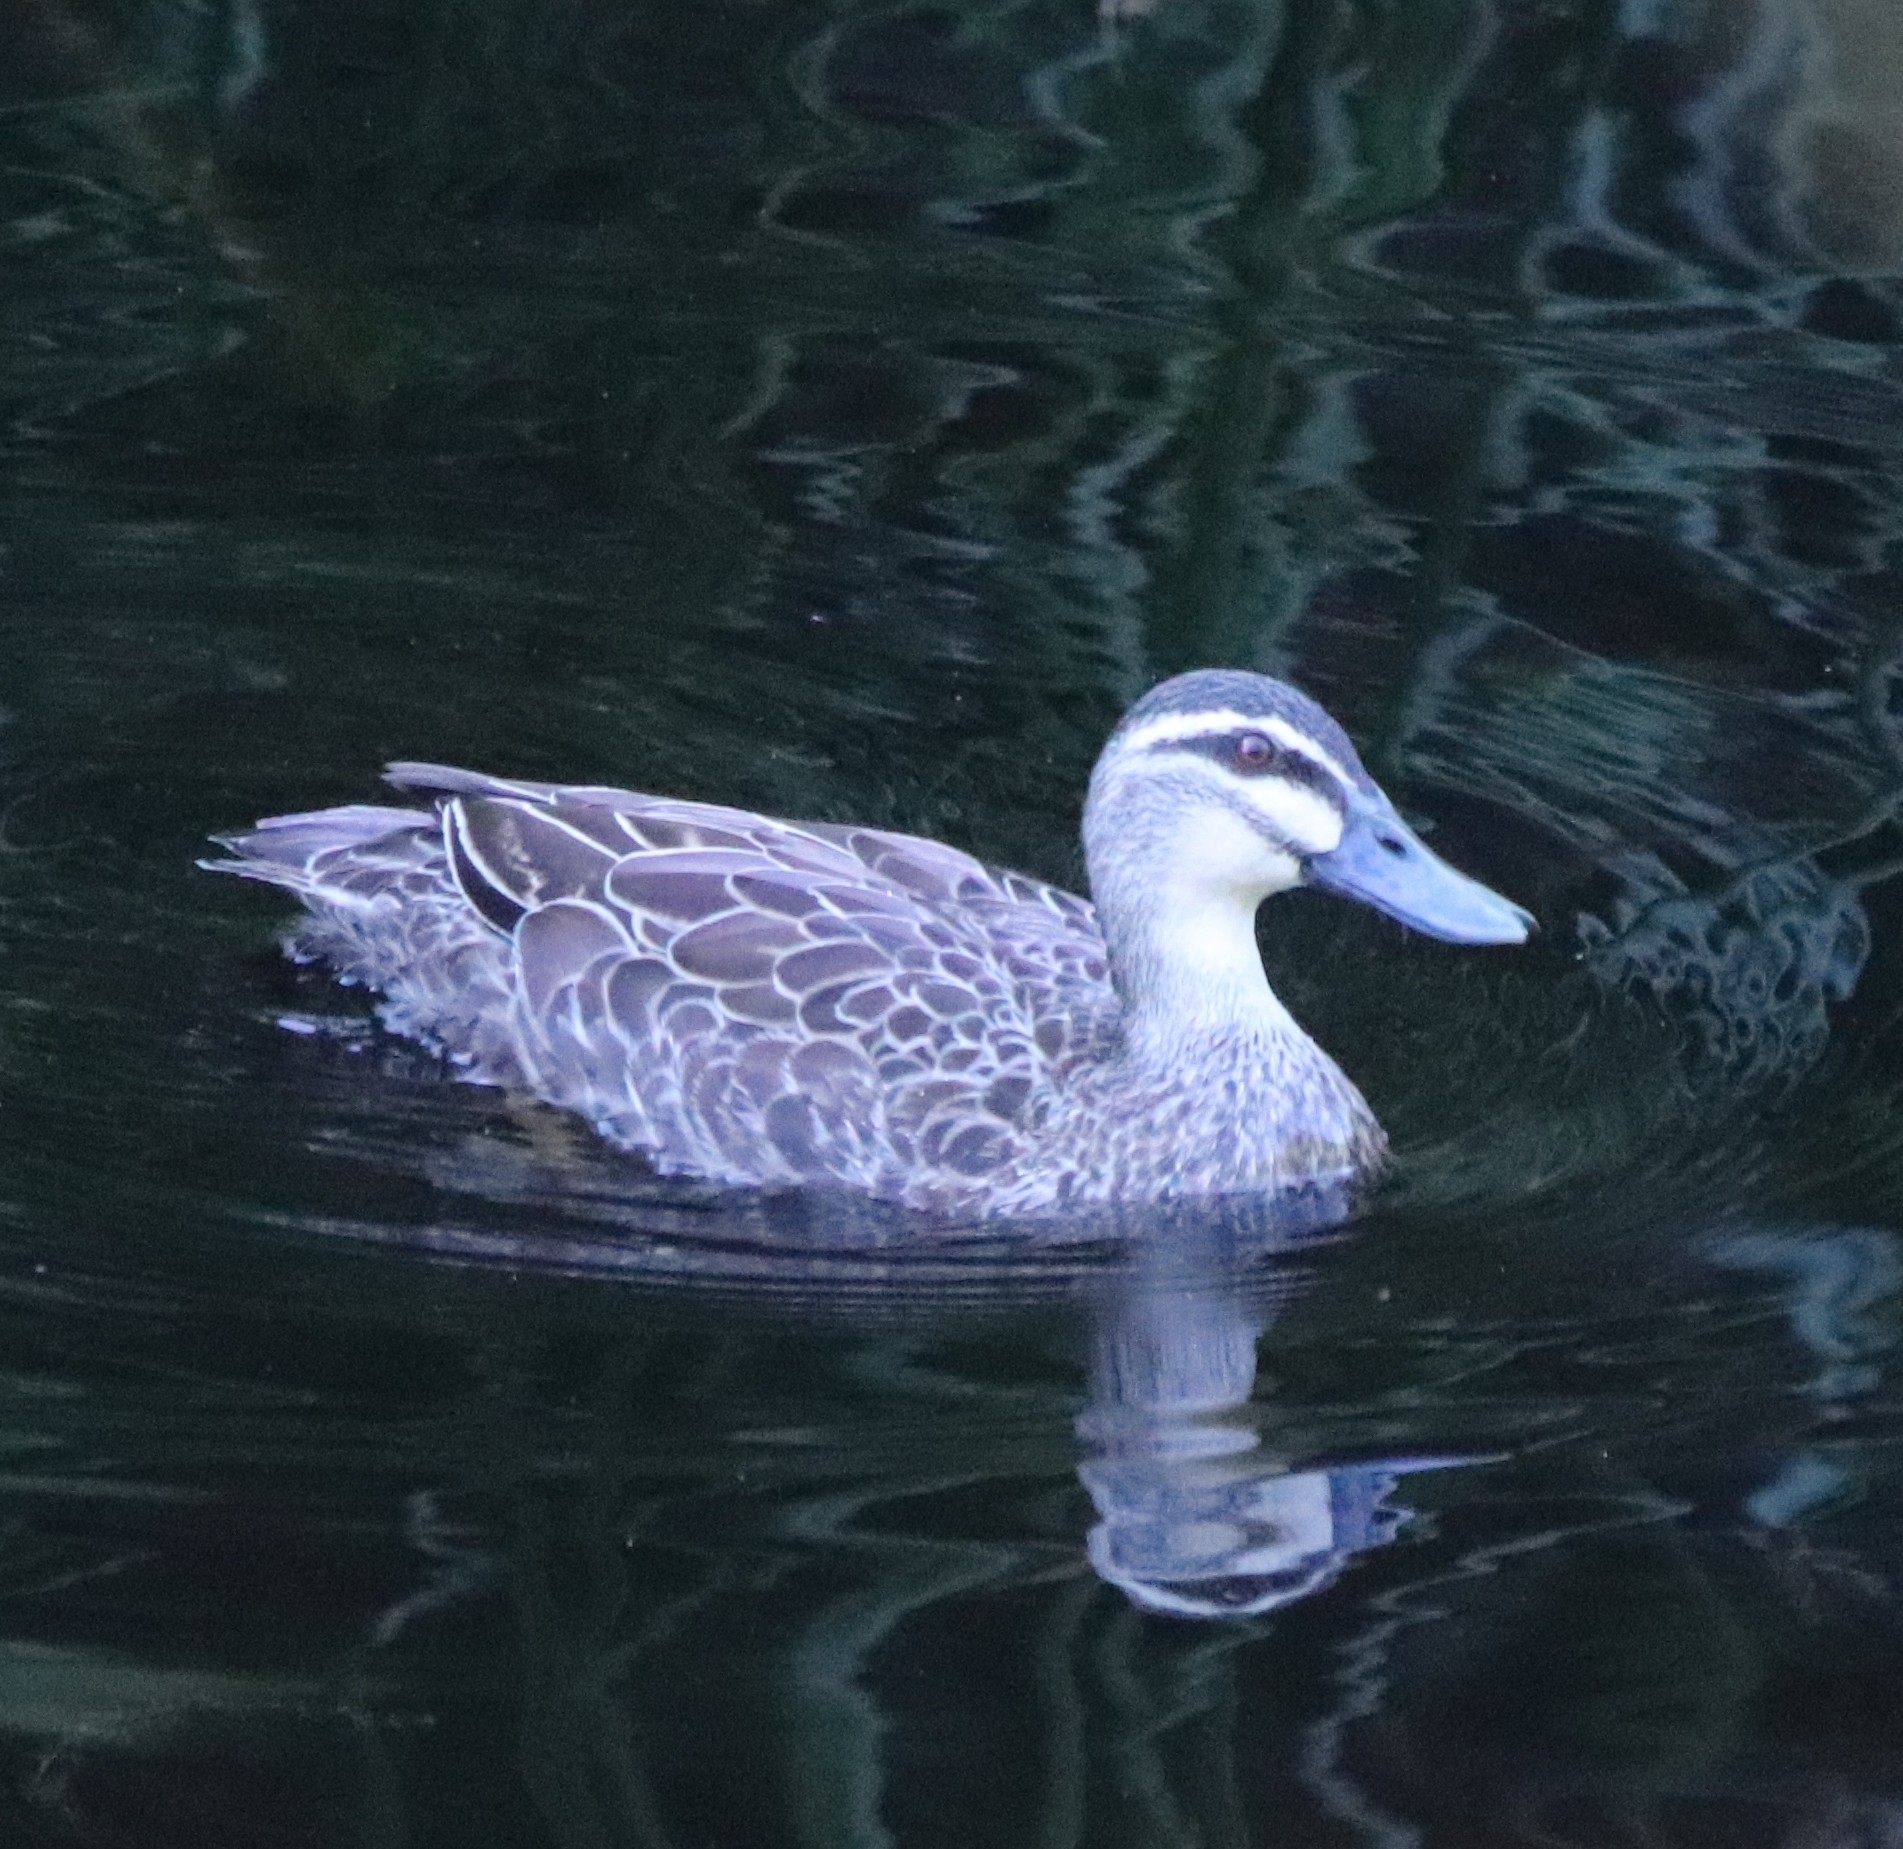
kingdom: Animalia
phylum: Chordata
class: Aves
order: Anseriformes
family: Anatidae
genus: Anas
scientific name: Anas superciliosa
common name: Pacific black duck
